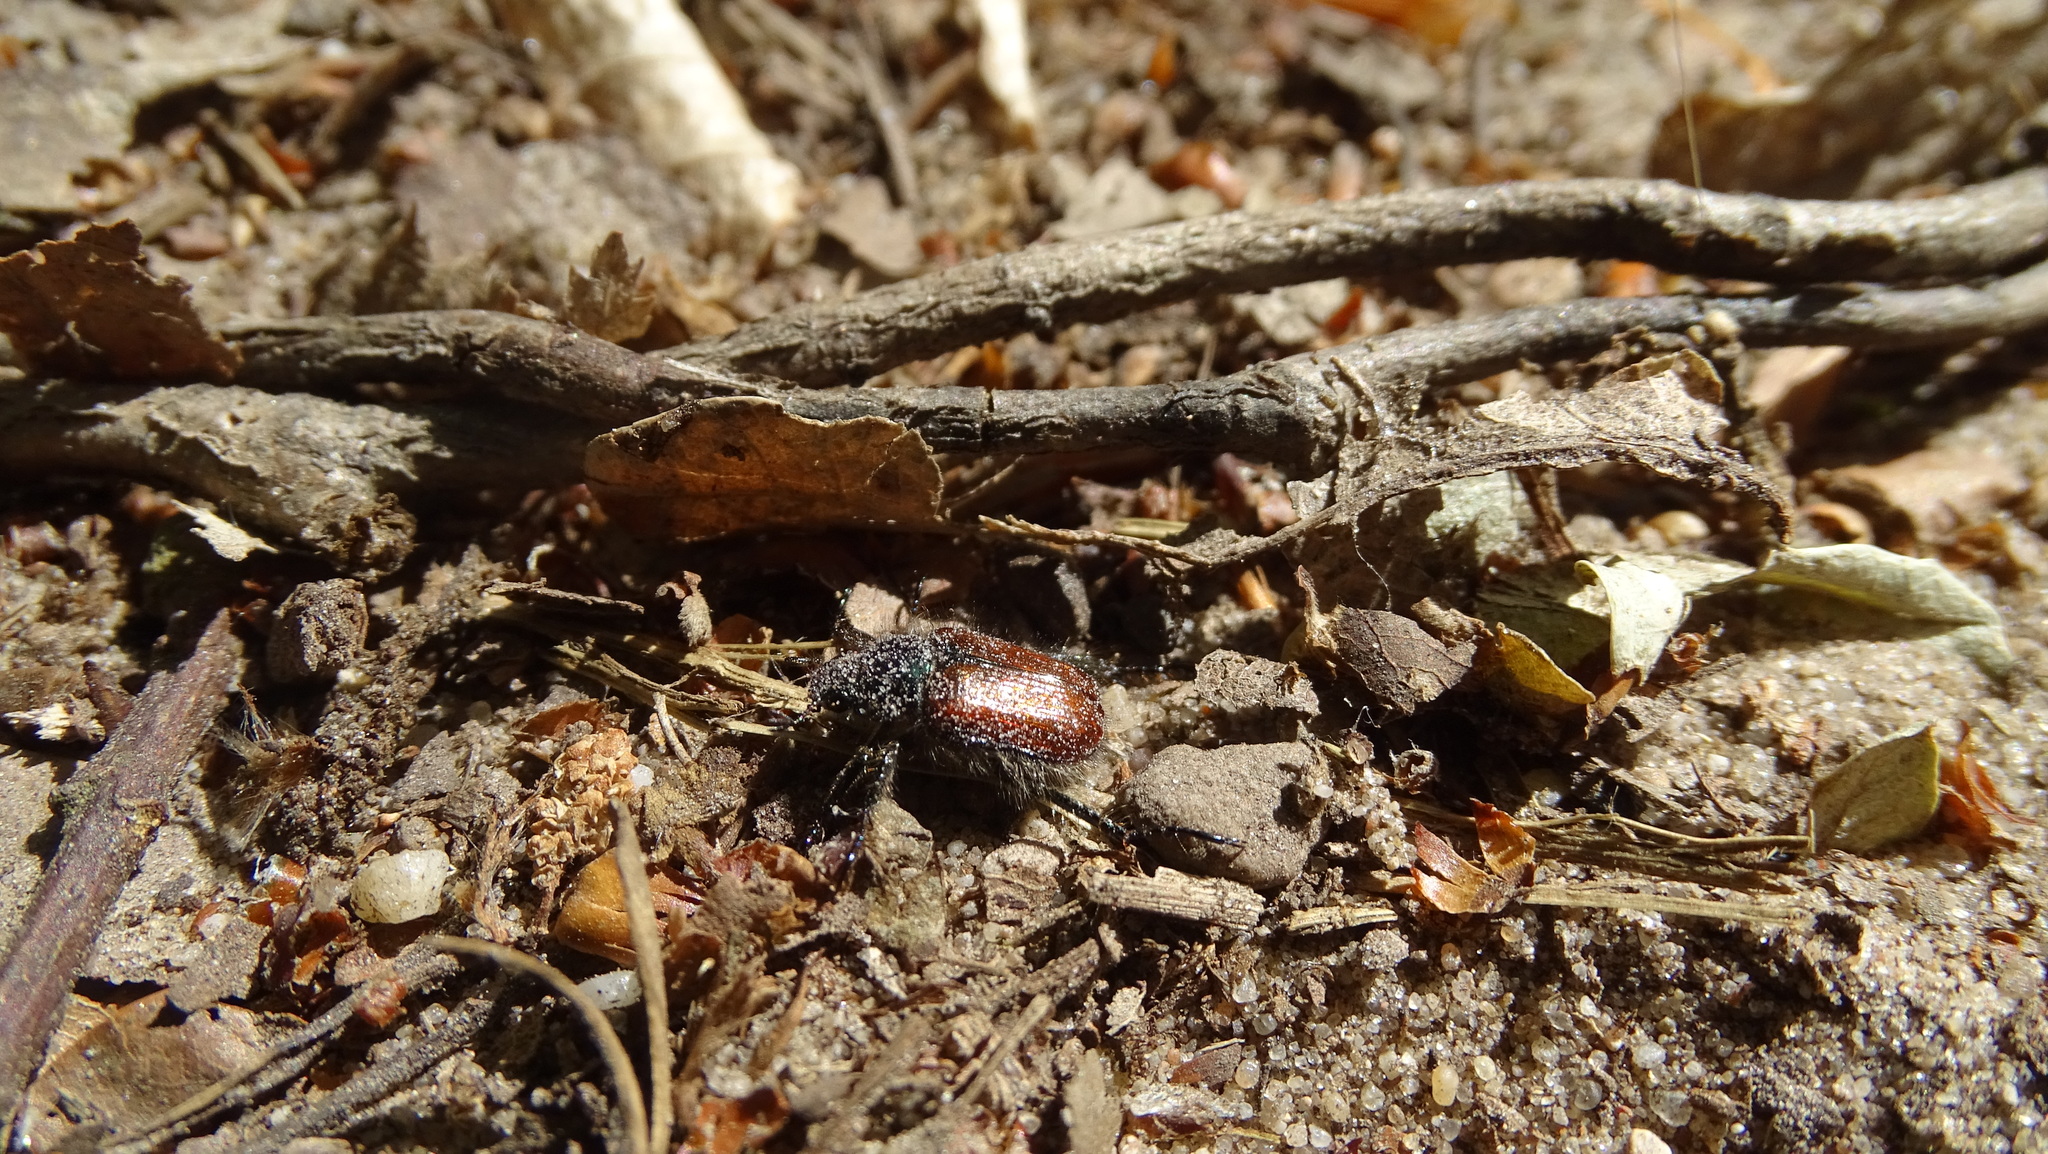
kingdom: Animalia
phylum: Arthropoda
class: Insecta
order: Coleoptera
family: Scarabaeidae
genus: Phyllopertha
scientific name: Phyllopertha horticola
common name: Garden chafer
